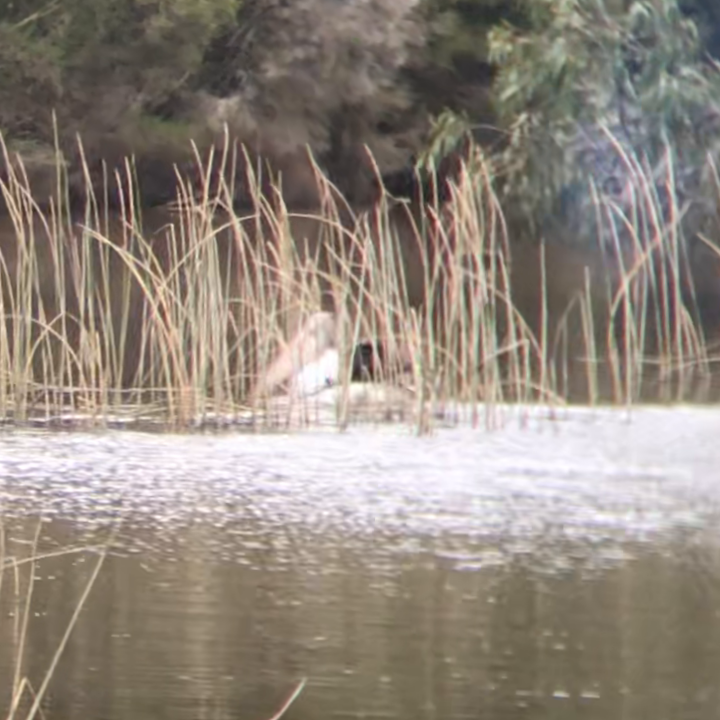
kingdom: Animalia
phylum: Chordata
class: Aves
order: Pelecaniformes
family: Pelecanidae
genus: Pelecanus
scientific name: Pelecanus conspicillatus
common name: Australian pelican
